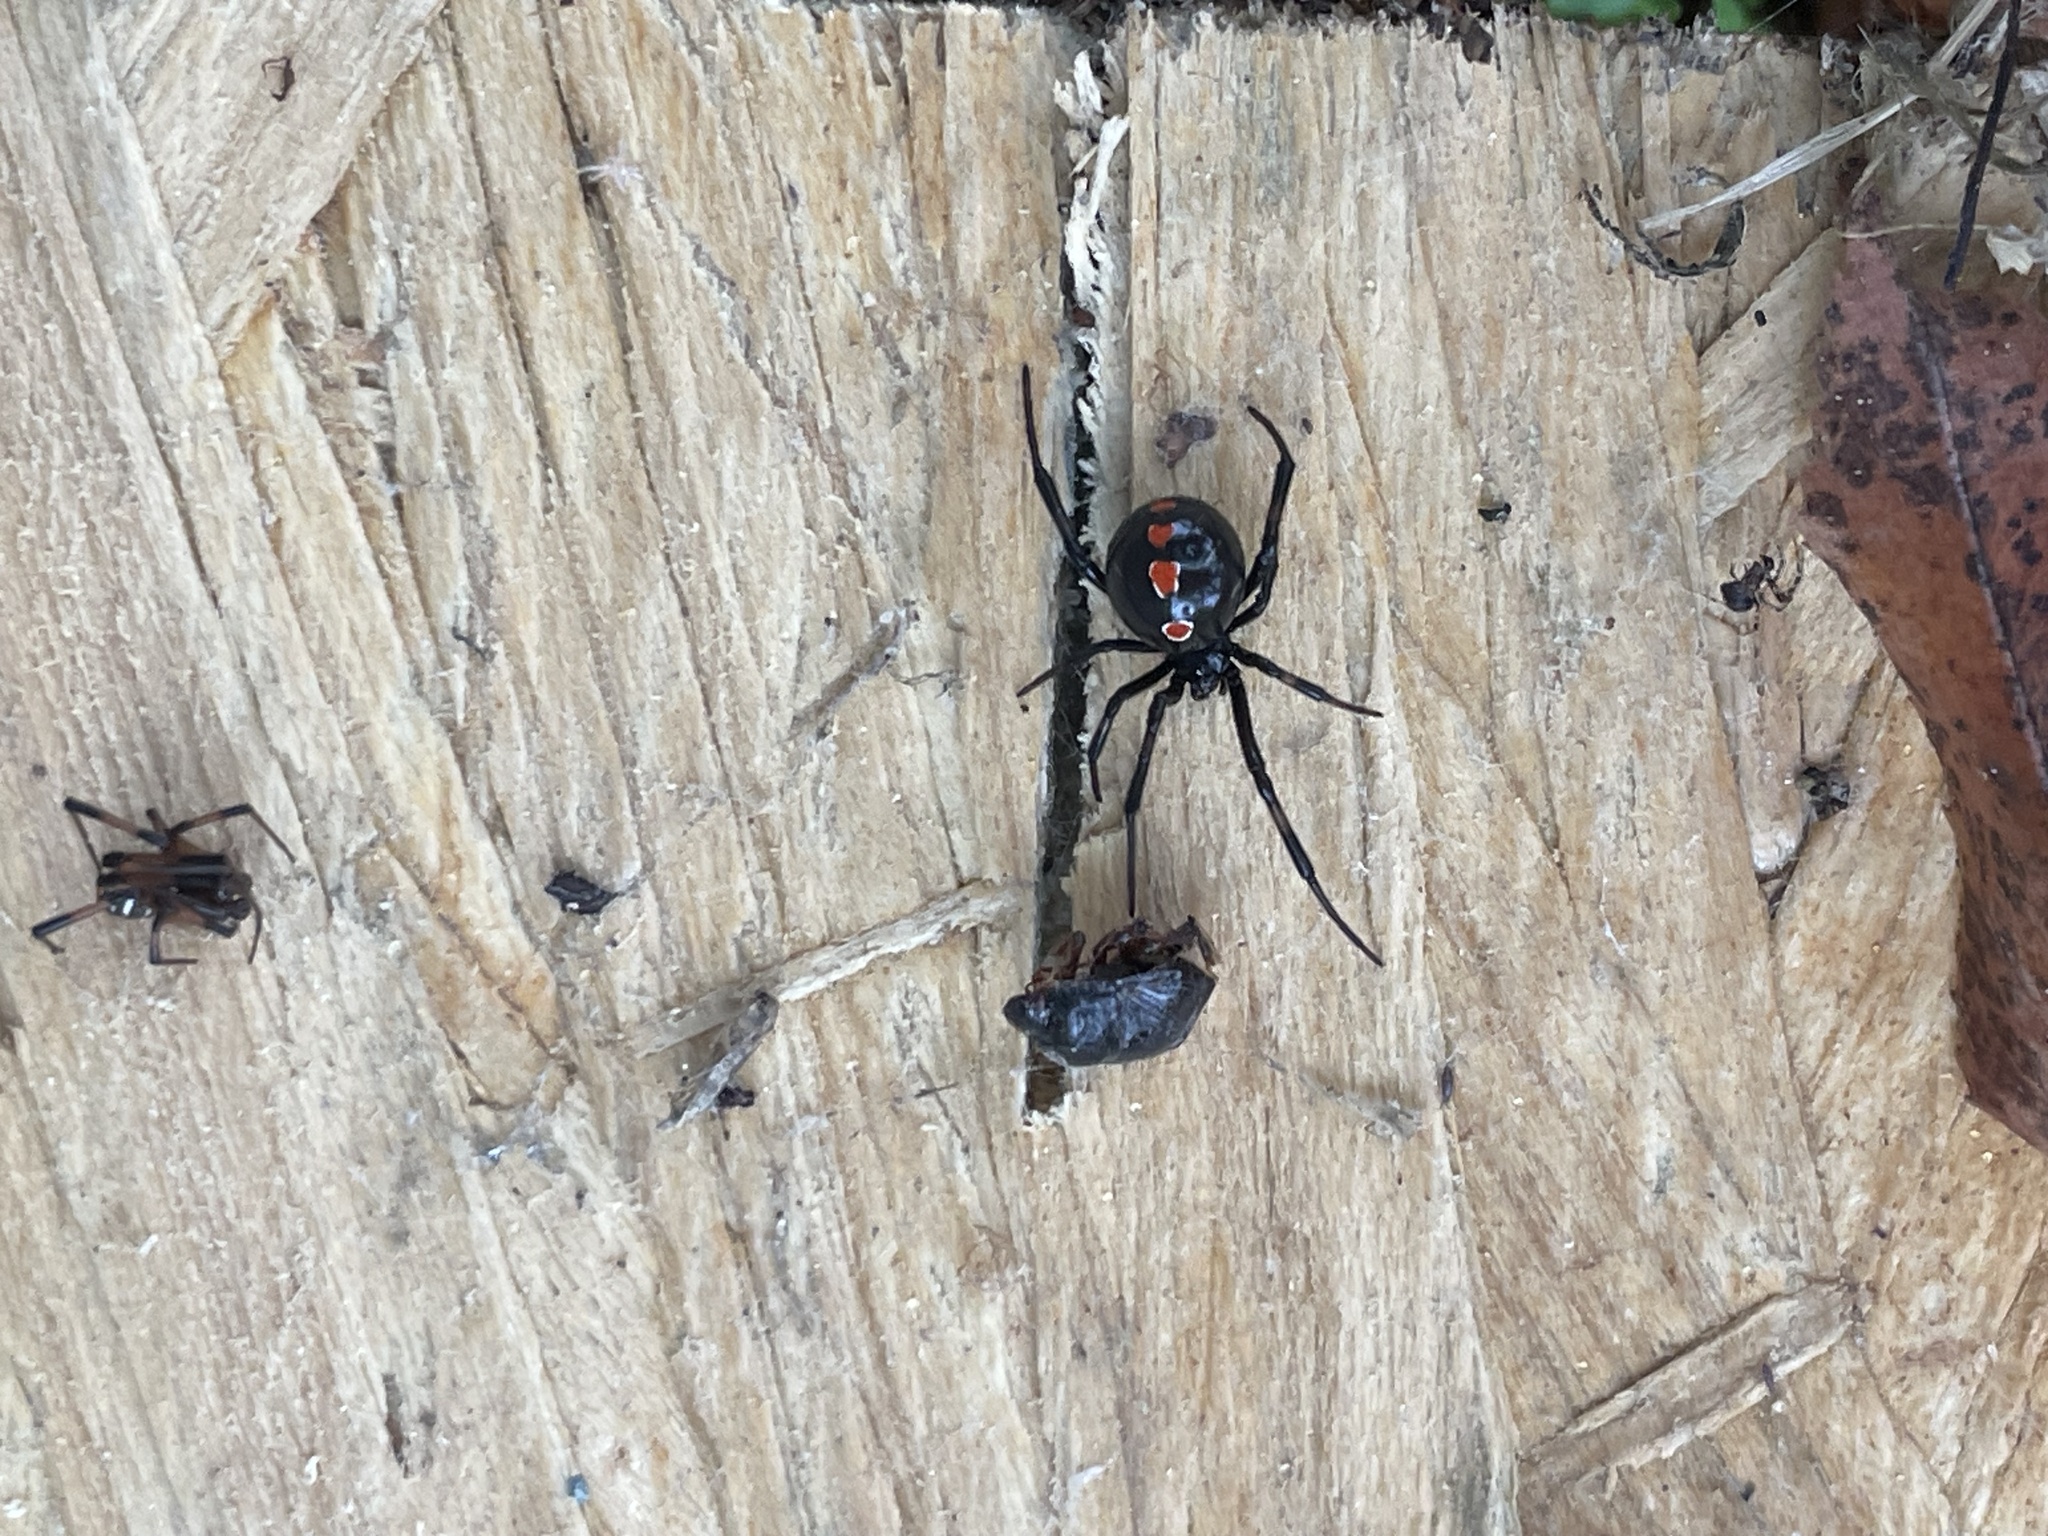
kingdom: Animalia
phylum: Arthropoda
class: Arachnida
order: Araneae
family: Theridiidae
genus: Latrodectus
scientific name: Latrodectus mactans
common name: Cobweb spiders
